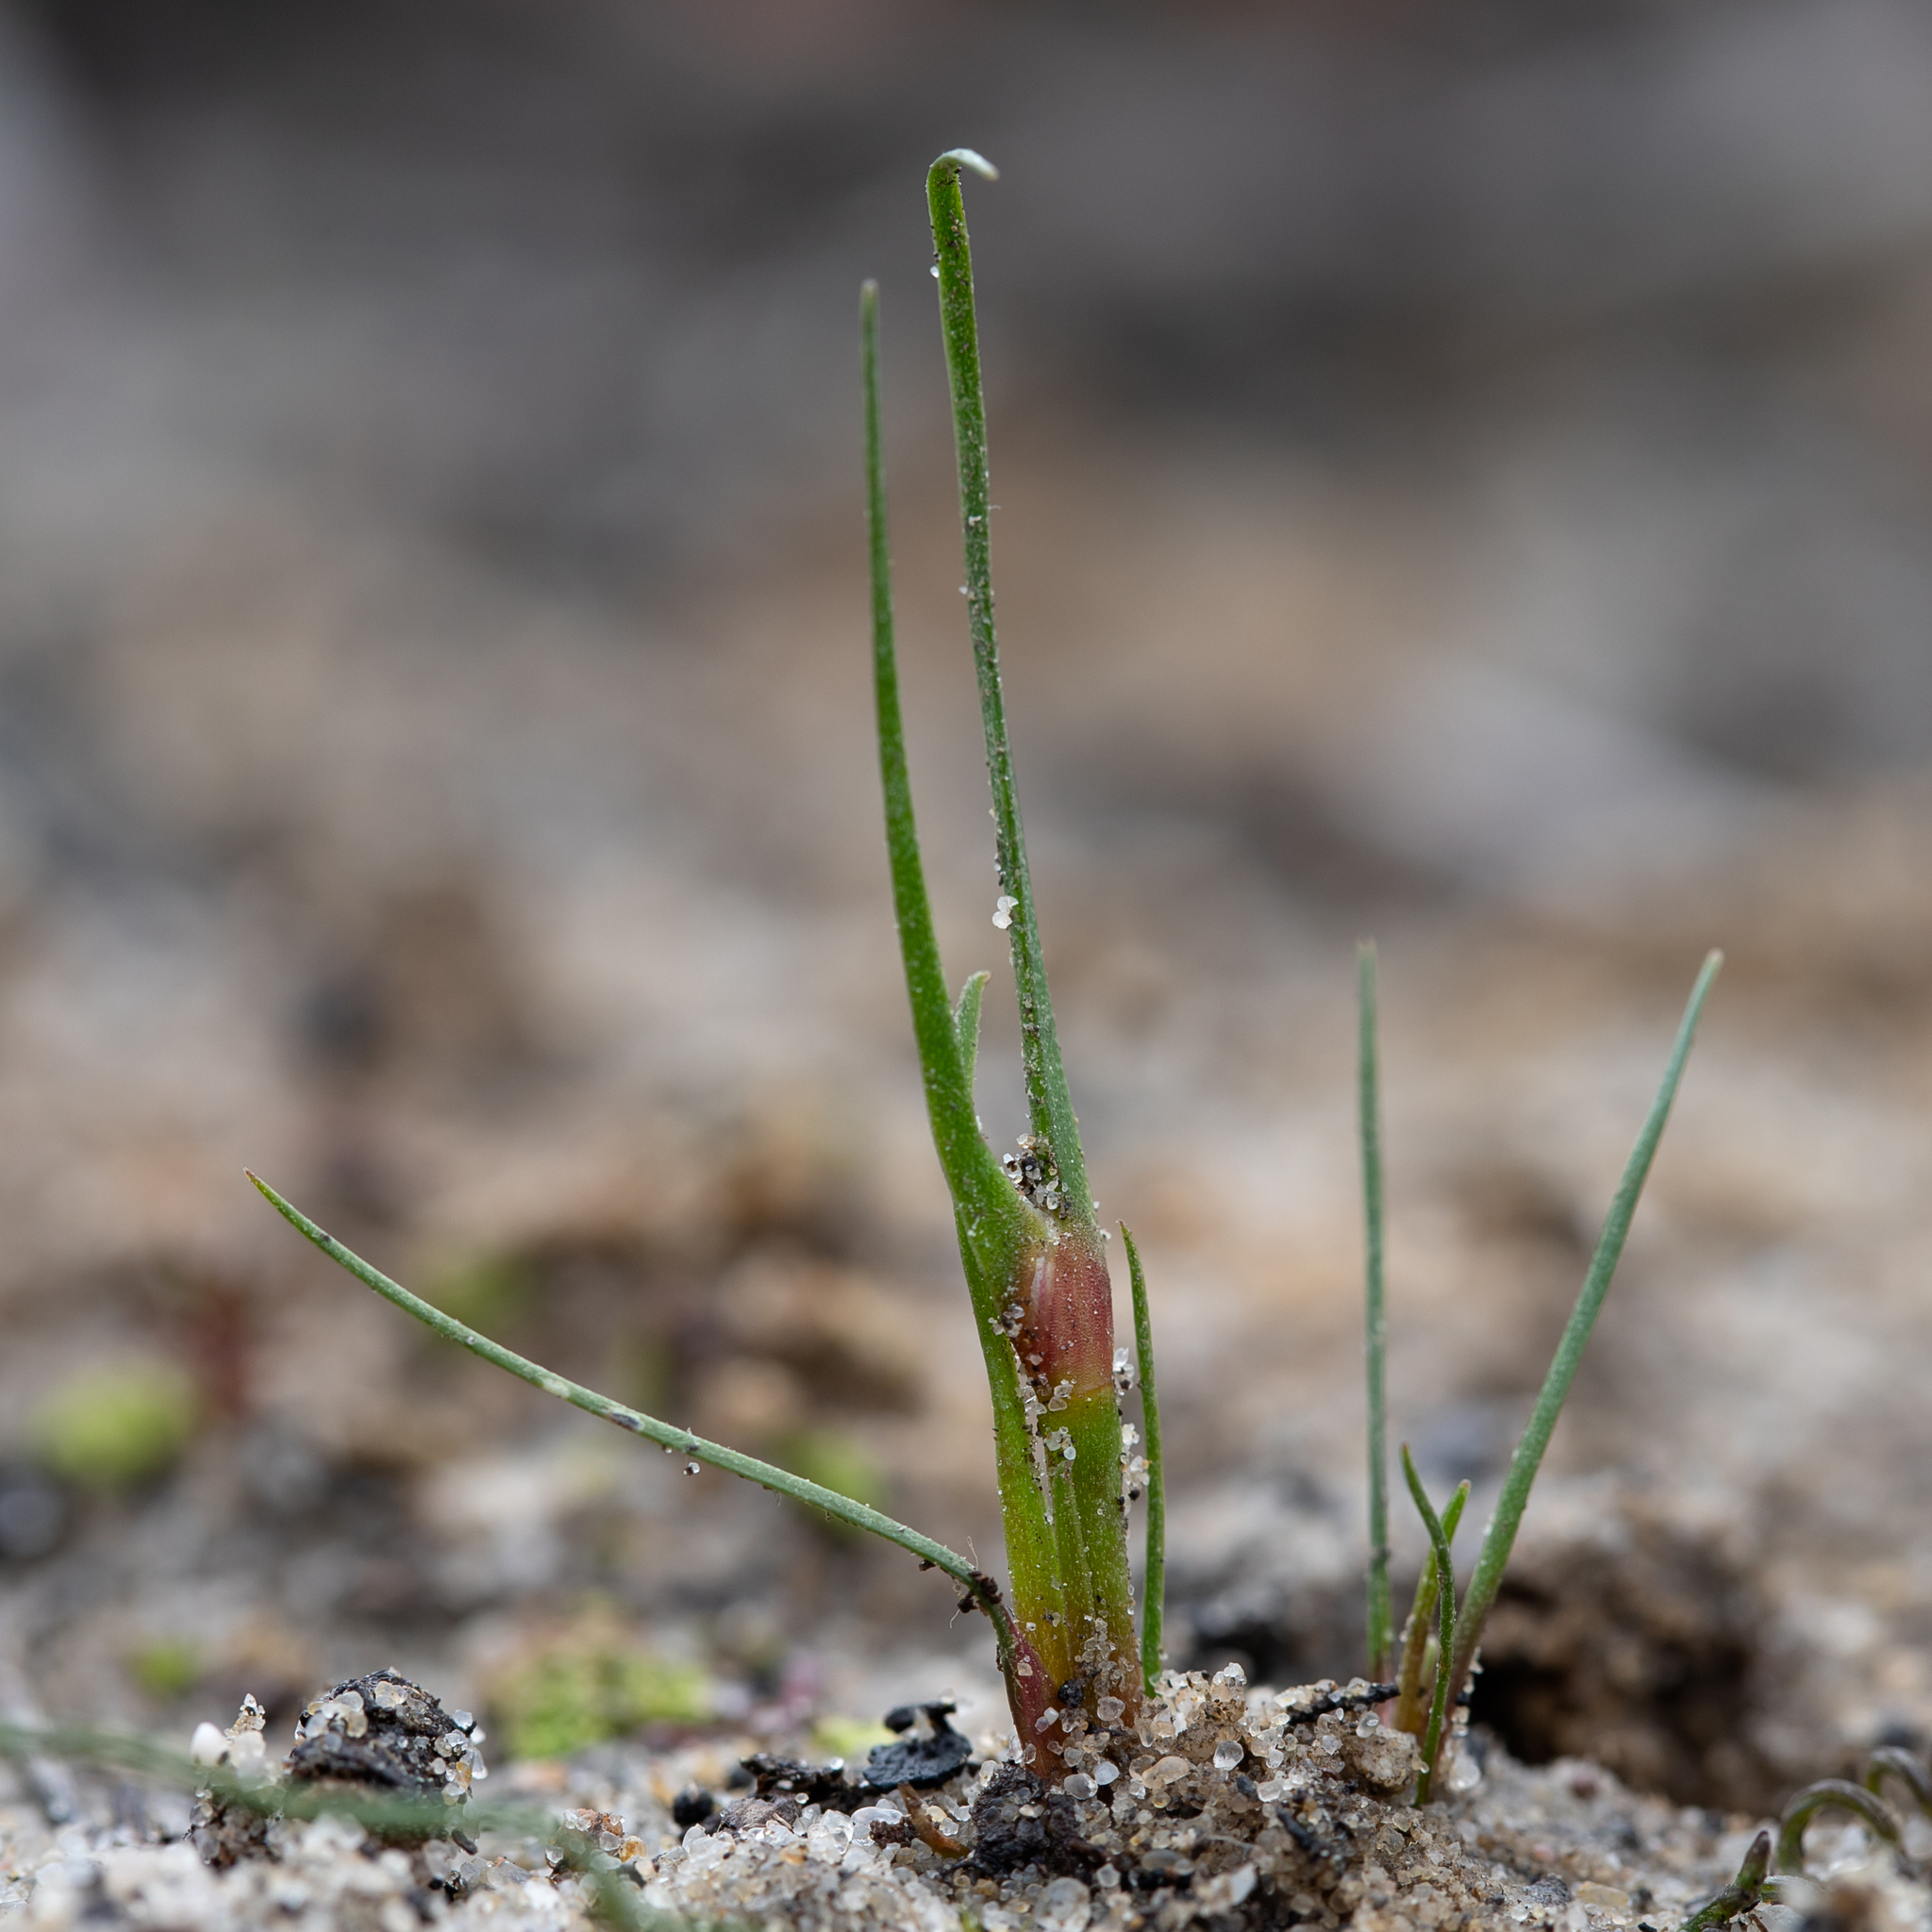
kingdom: Plantae
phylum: Tracheophyta
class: Liliopsida
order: Poales
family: Restionaceae
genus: Centrolepis
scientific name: Centrolepis aristata
